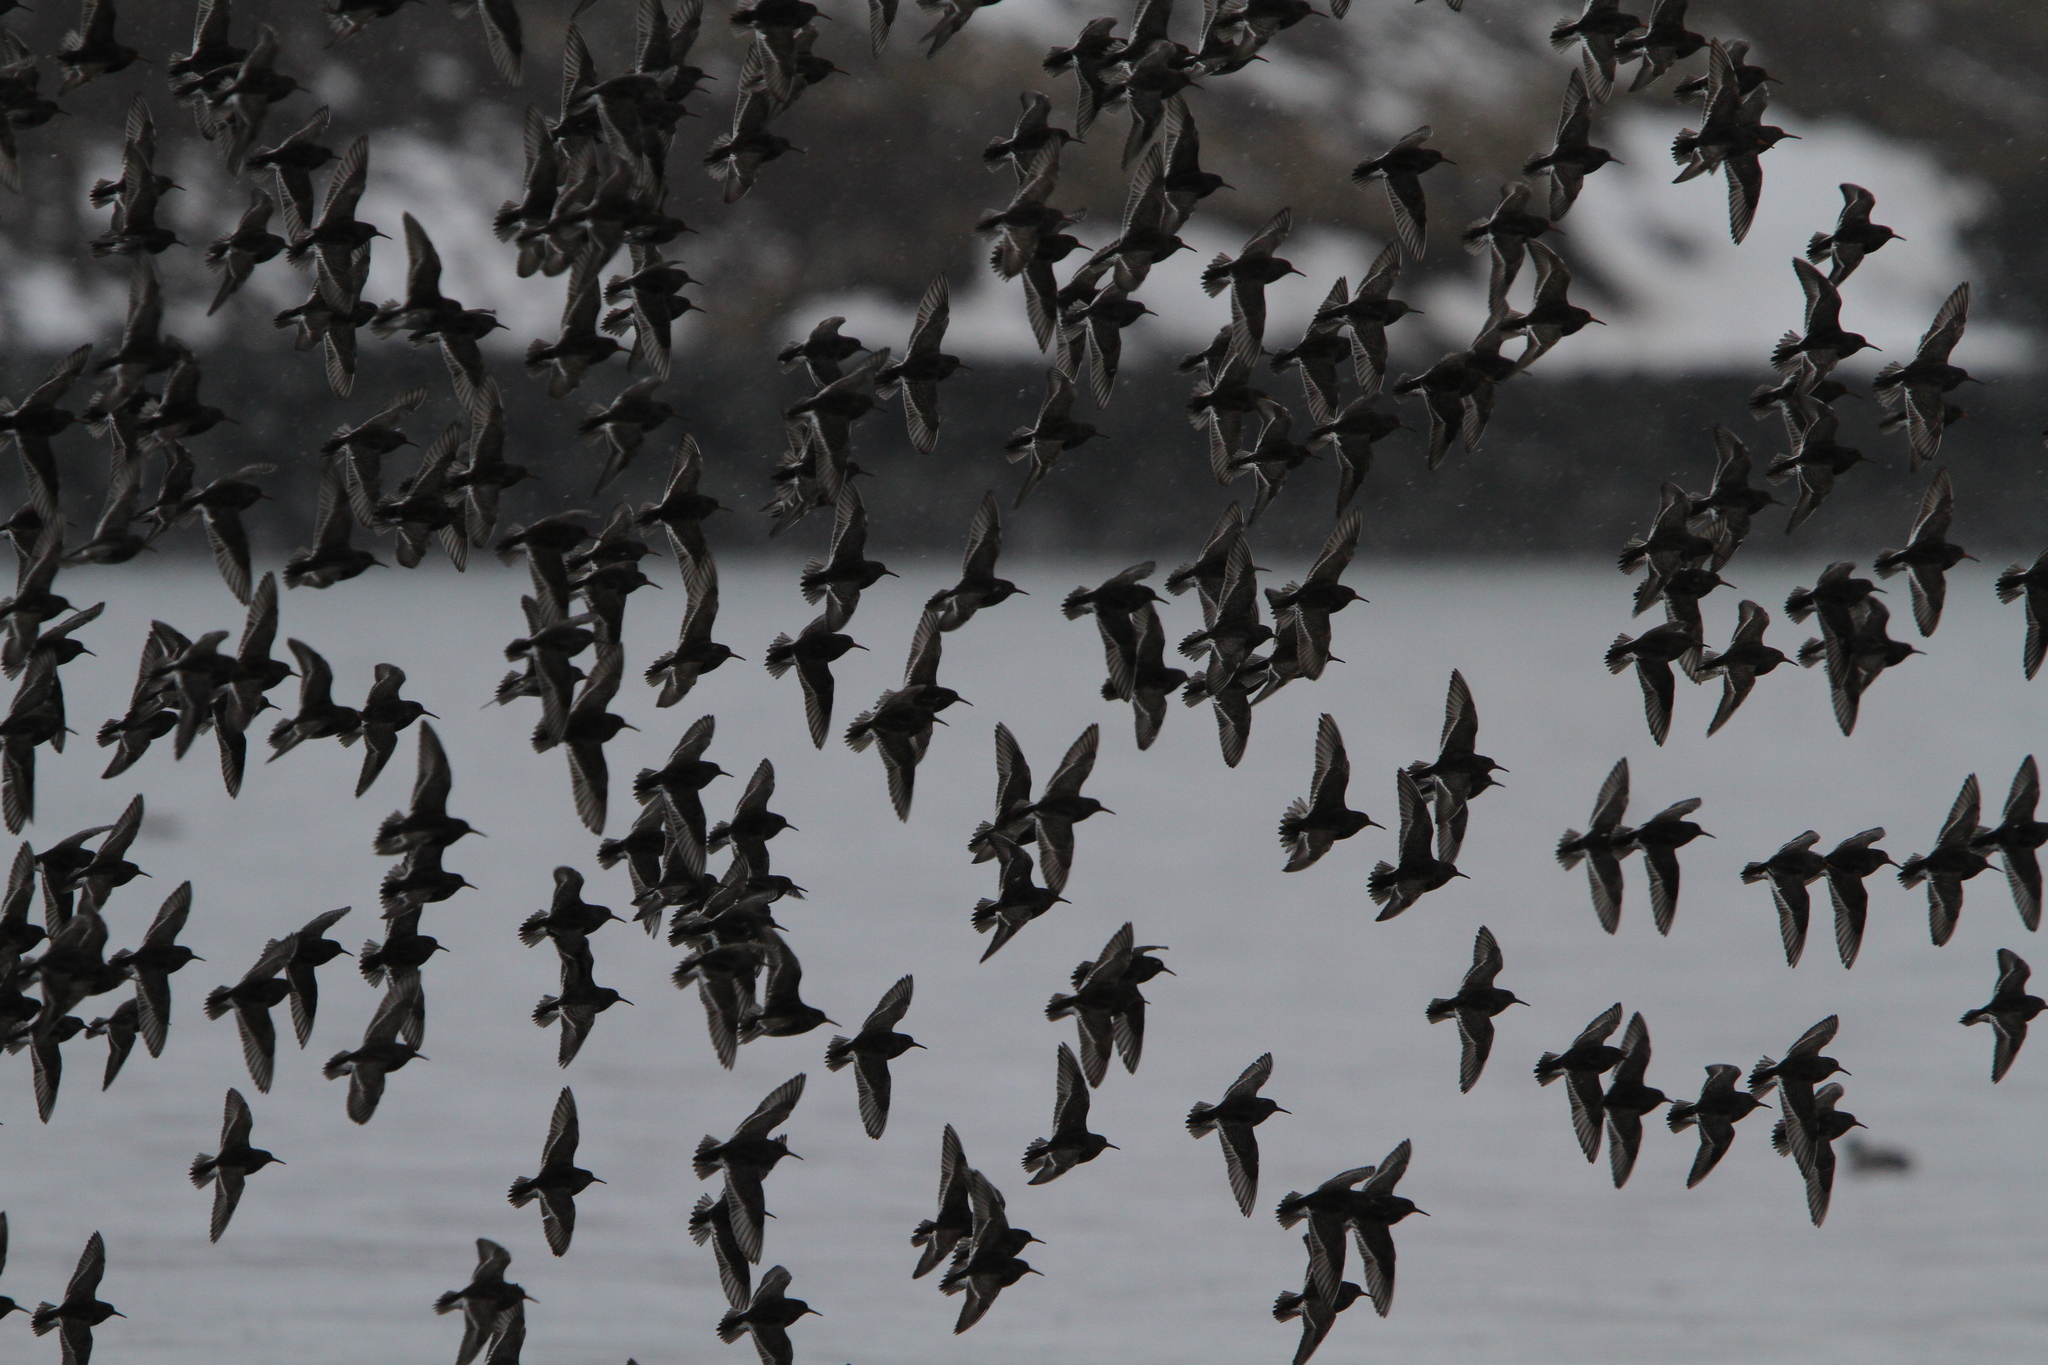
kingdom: Animalia
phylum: Chordata
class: Aves
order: Charadriiformes
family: Scolopacidae
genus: Calidris
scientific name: Calidris maritima
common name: Purple sandpiper
